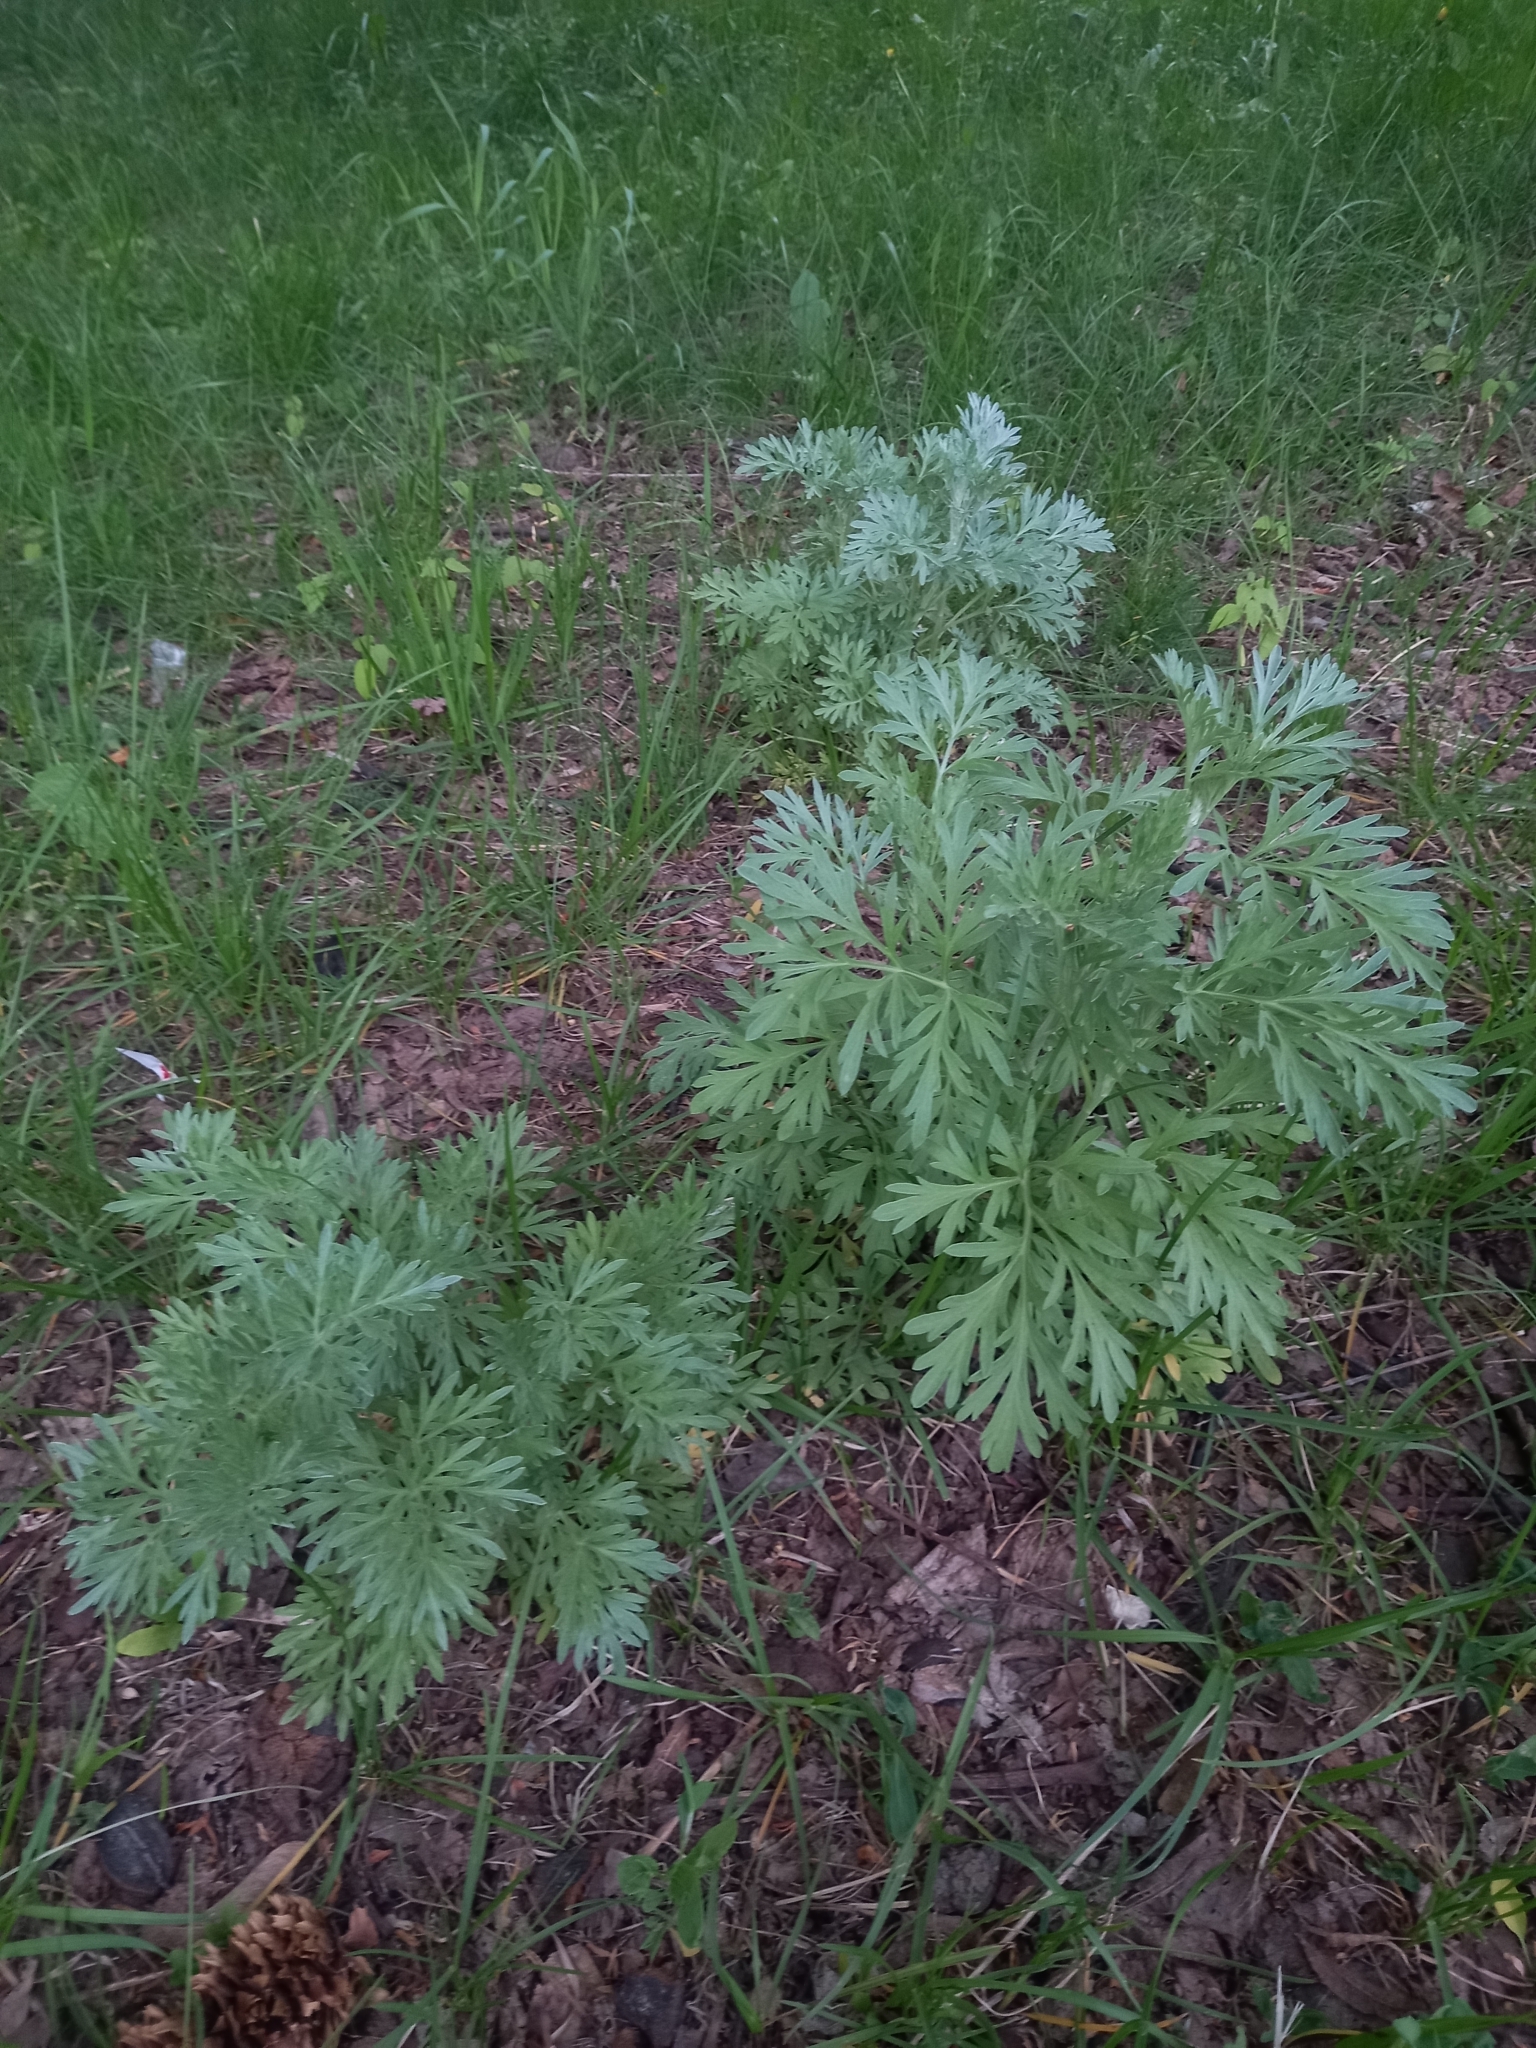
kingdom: Plantae
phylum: Tracheophyta
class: Magnoliopsida
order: Asterales
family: Asteraceae
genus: Artemisia
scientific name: Artemisia absinthium
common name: Wormwood
